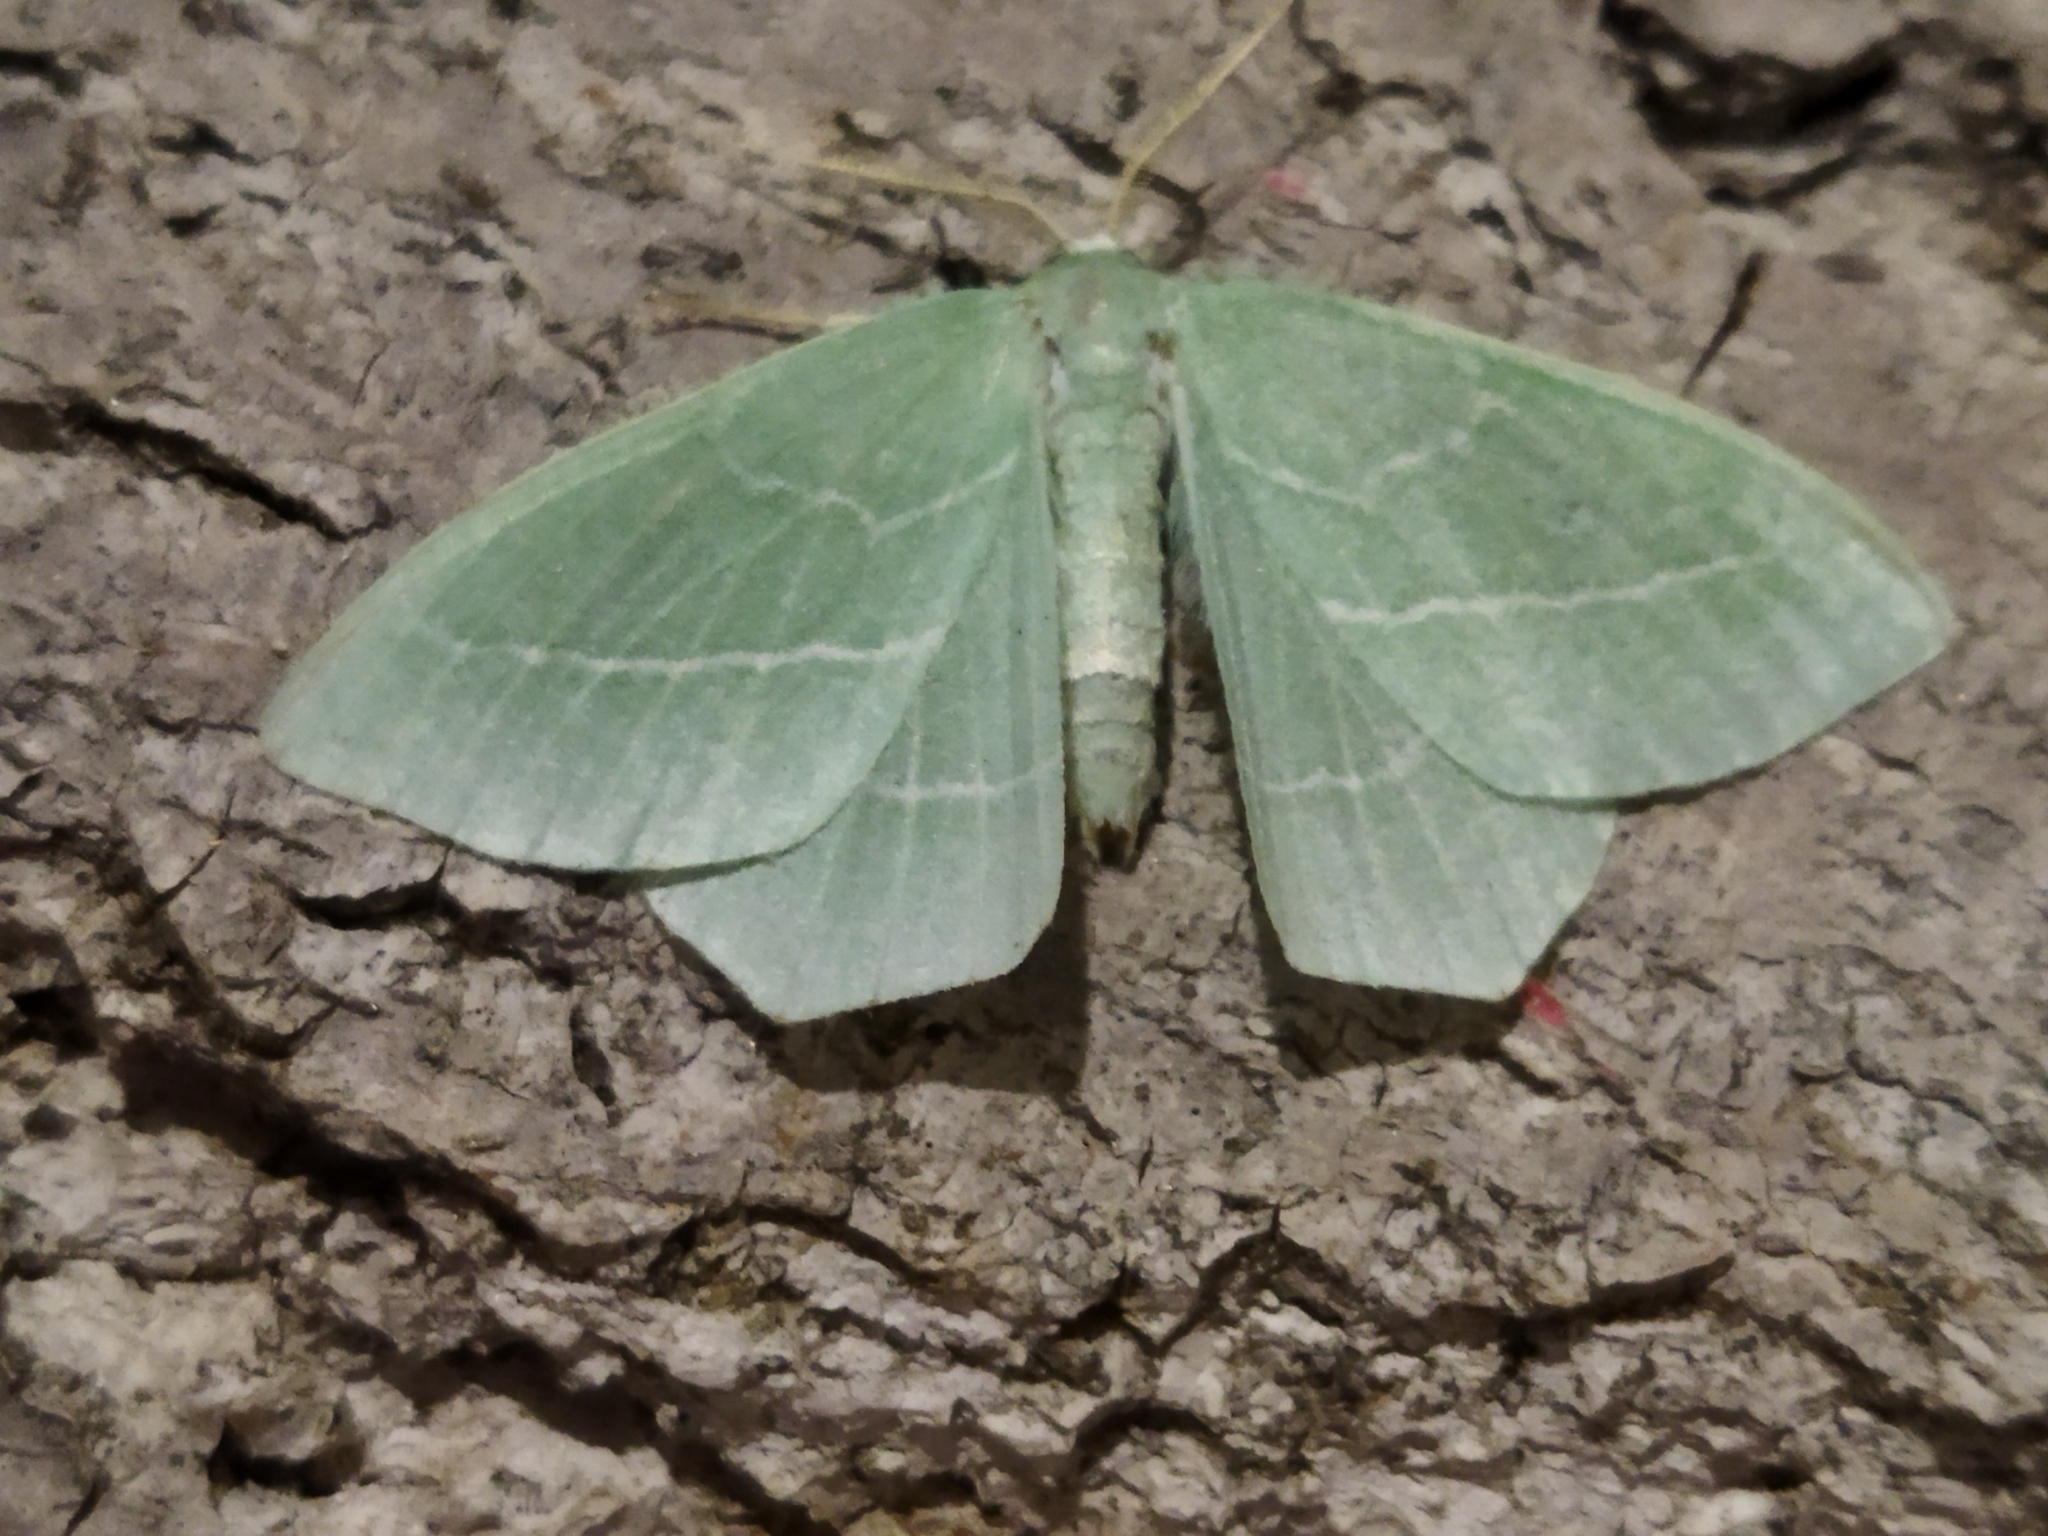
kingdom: Animalia
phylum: Arthropoda
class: Insecta
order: Lepidoptera
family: Geometridae
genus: Hemistola
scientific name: Hemistola chrysoprasaria
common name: Small emerald
